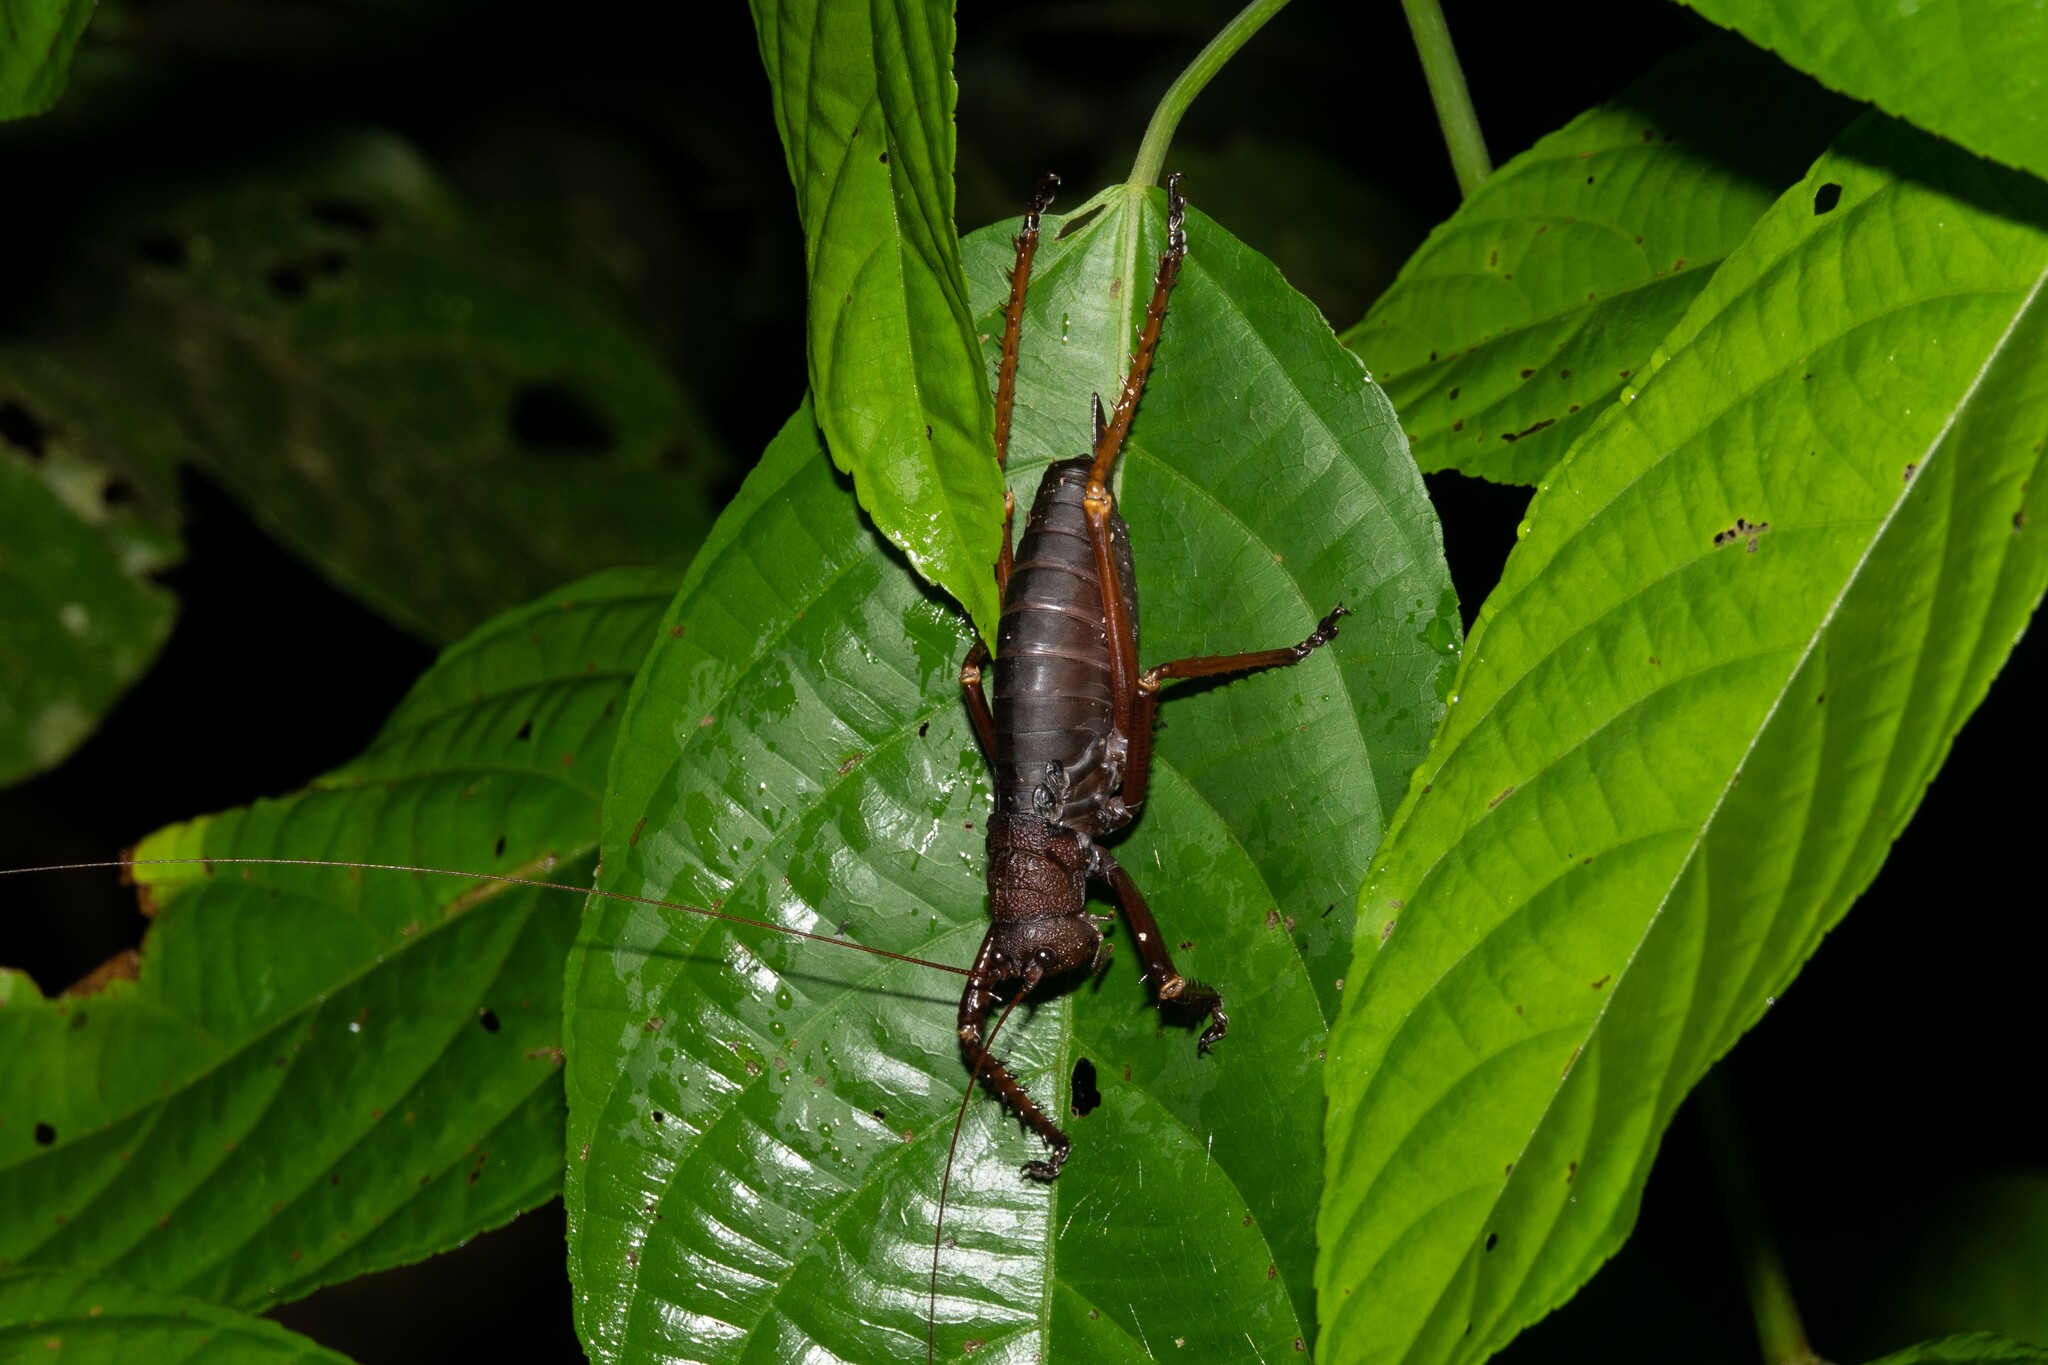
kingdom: Animalia
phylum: Arthropoda
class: Insecta
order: Orthoptera
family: Tettigoniidae
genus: Panoploscelis
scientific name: Panoploscelis specularis
